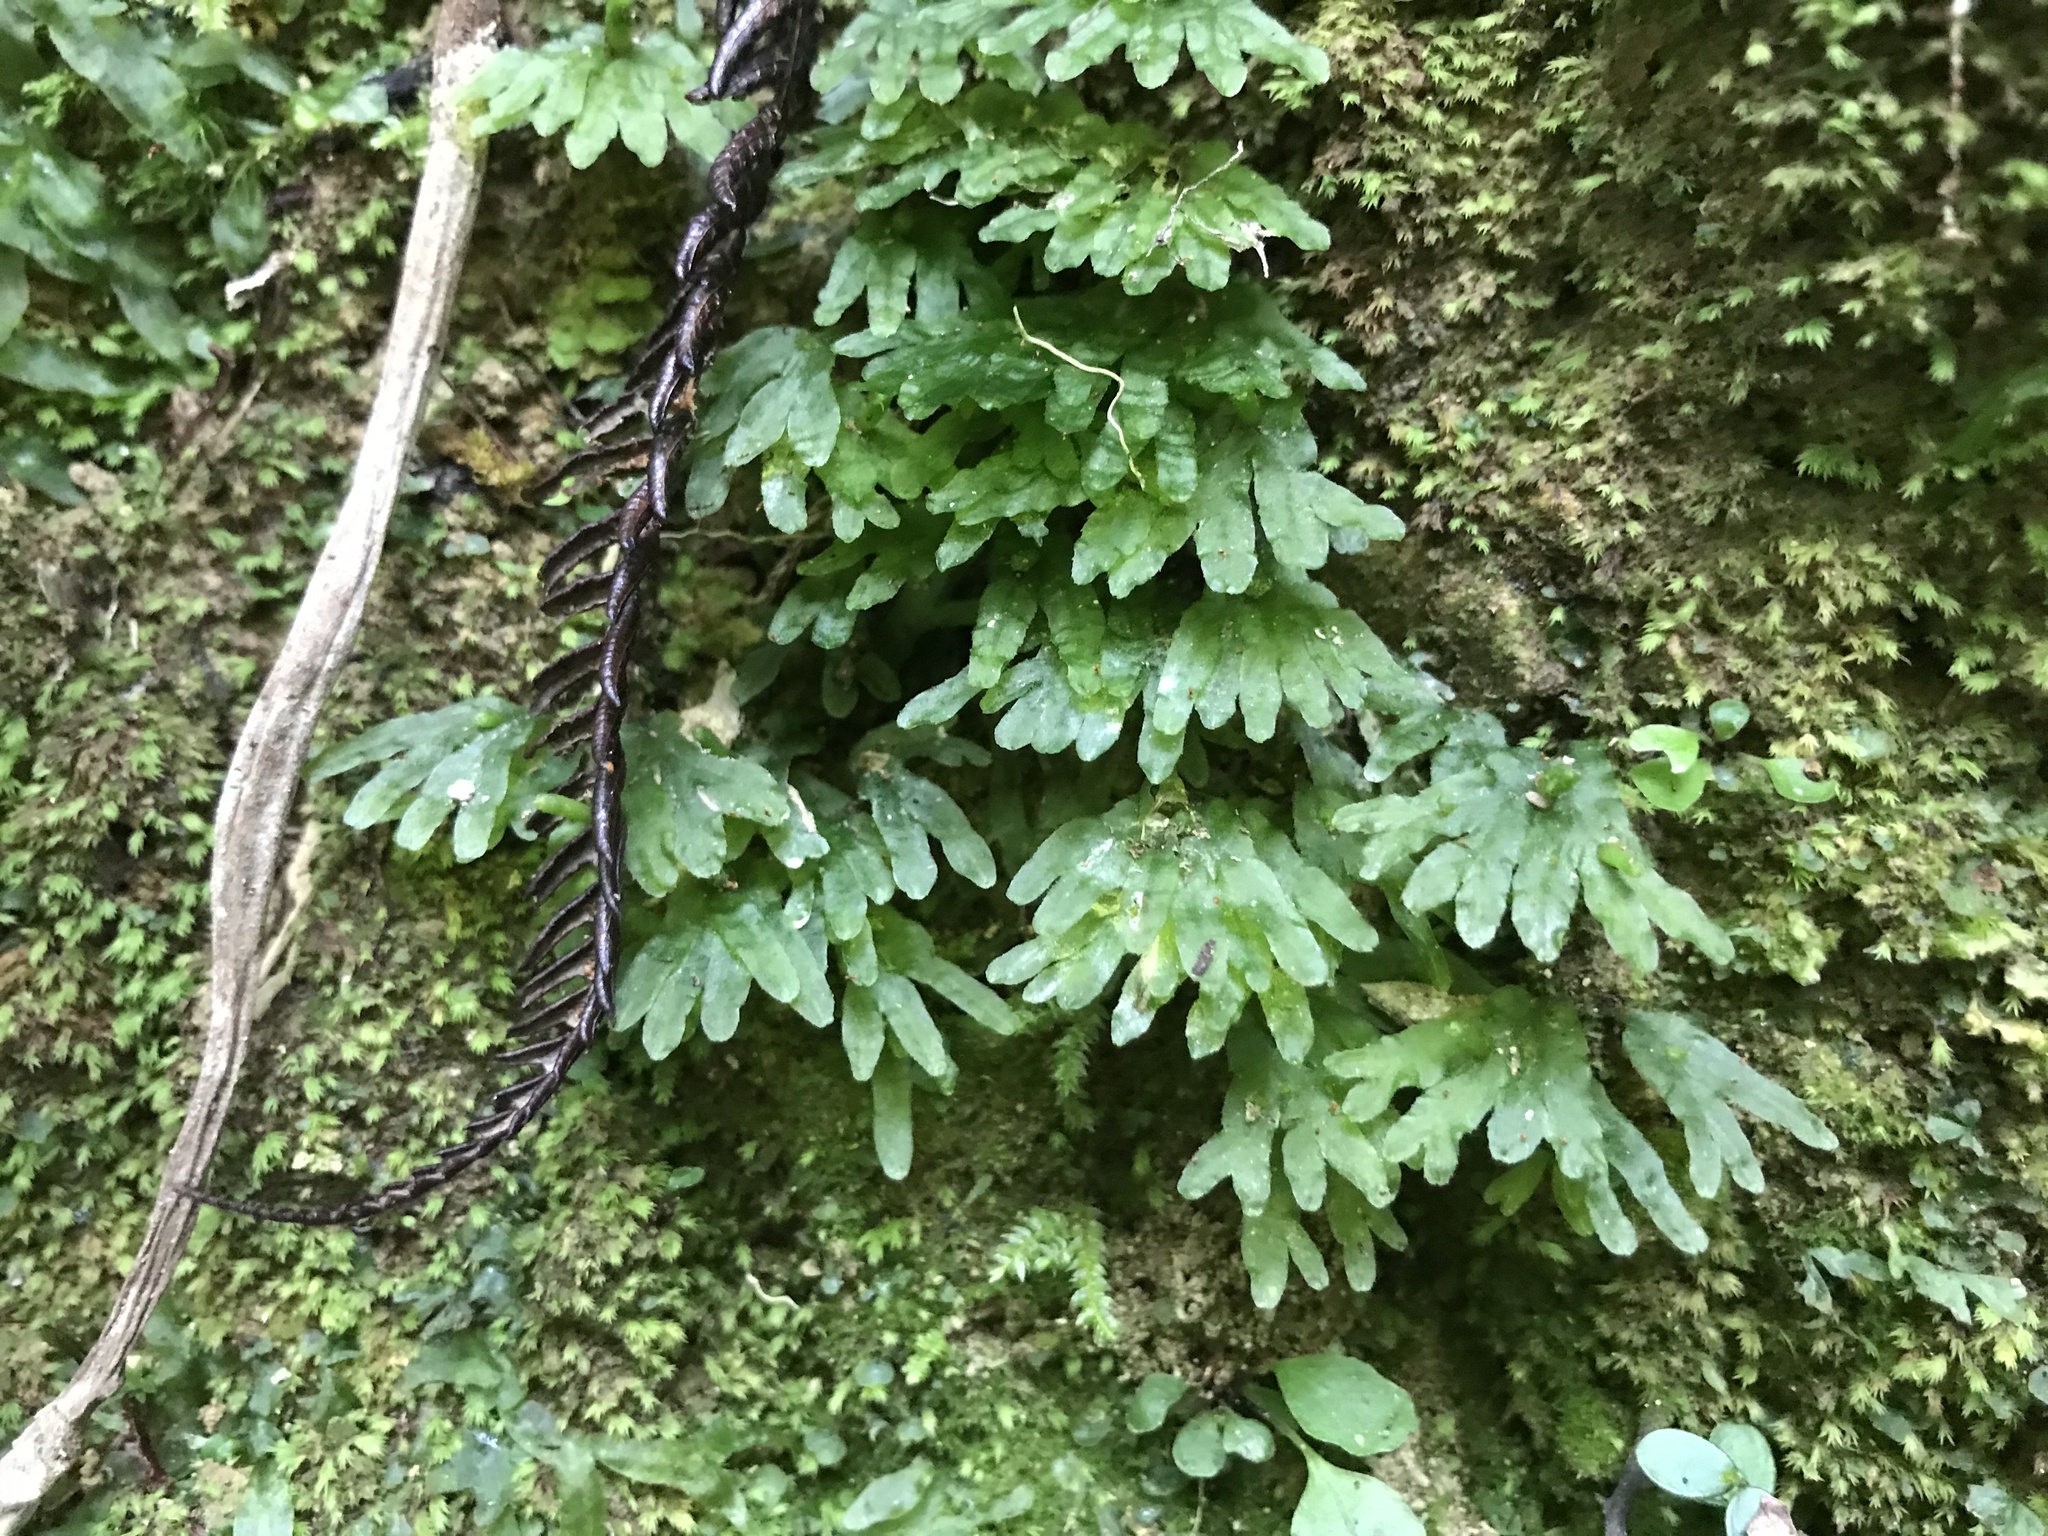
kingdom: Plantae
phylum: Marchantiophyta
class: Jungermanniopsida
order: Pallaviciniales
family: Pallaviciniaceae
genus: Symphyogyna
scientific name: Symphyogyna hymenophyllum
